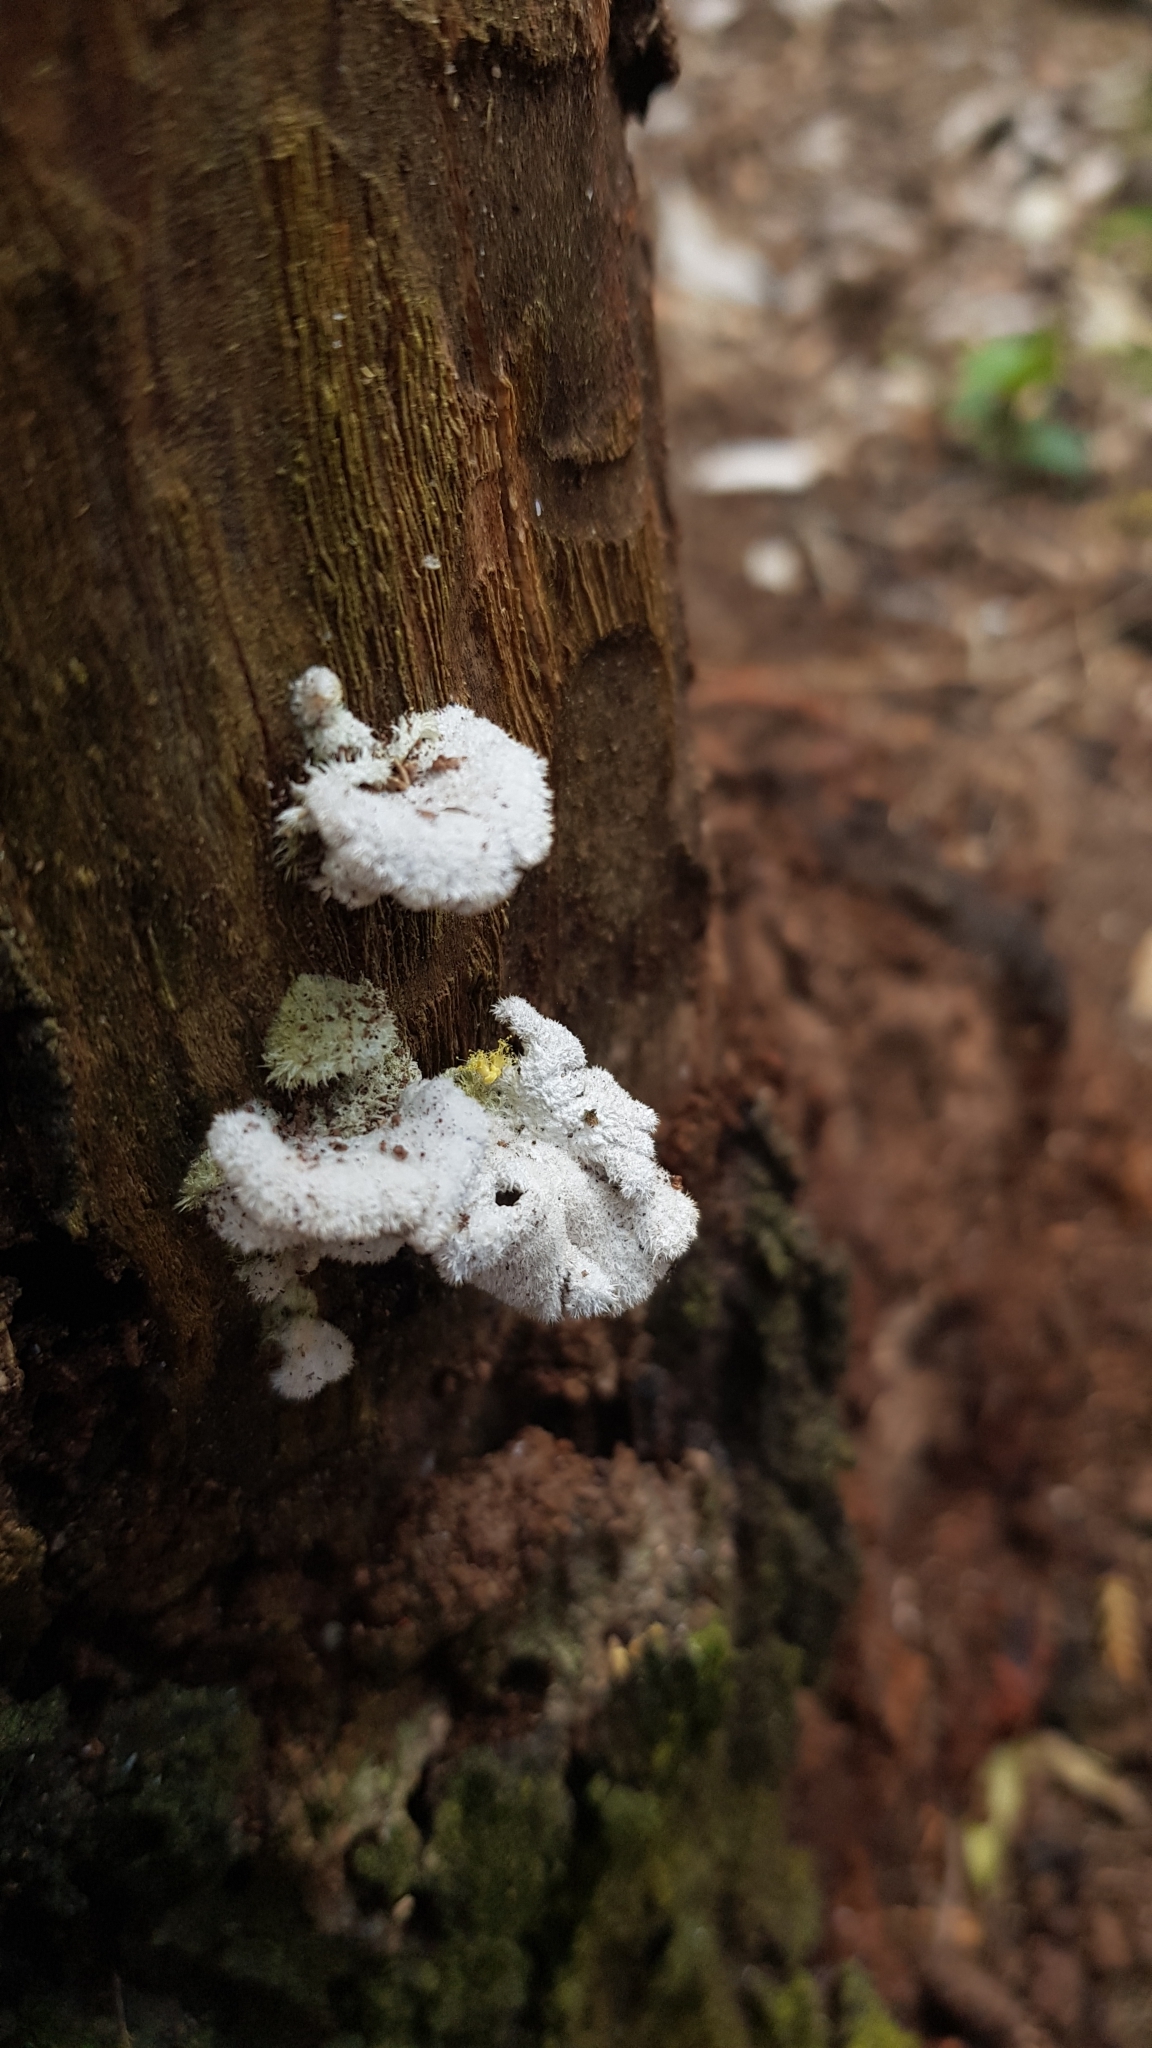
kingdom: Fungi
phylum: Basidiomycota
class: Agaricomycetes
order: Agaricales
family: Schizophyllaceae
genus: Schizophyllum
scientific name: Schizophyllum commune
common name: Common porecrust
